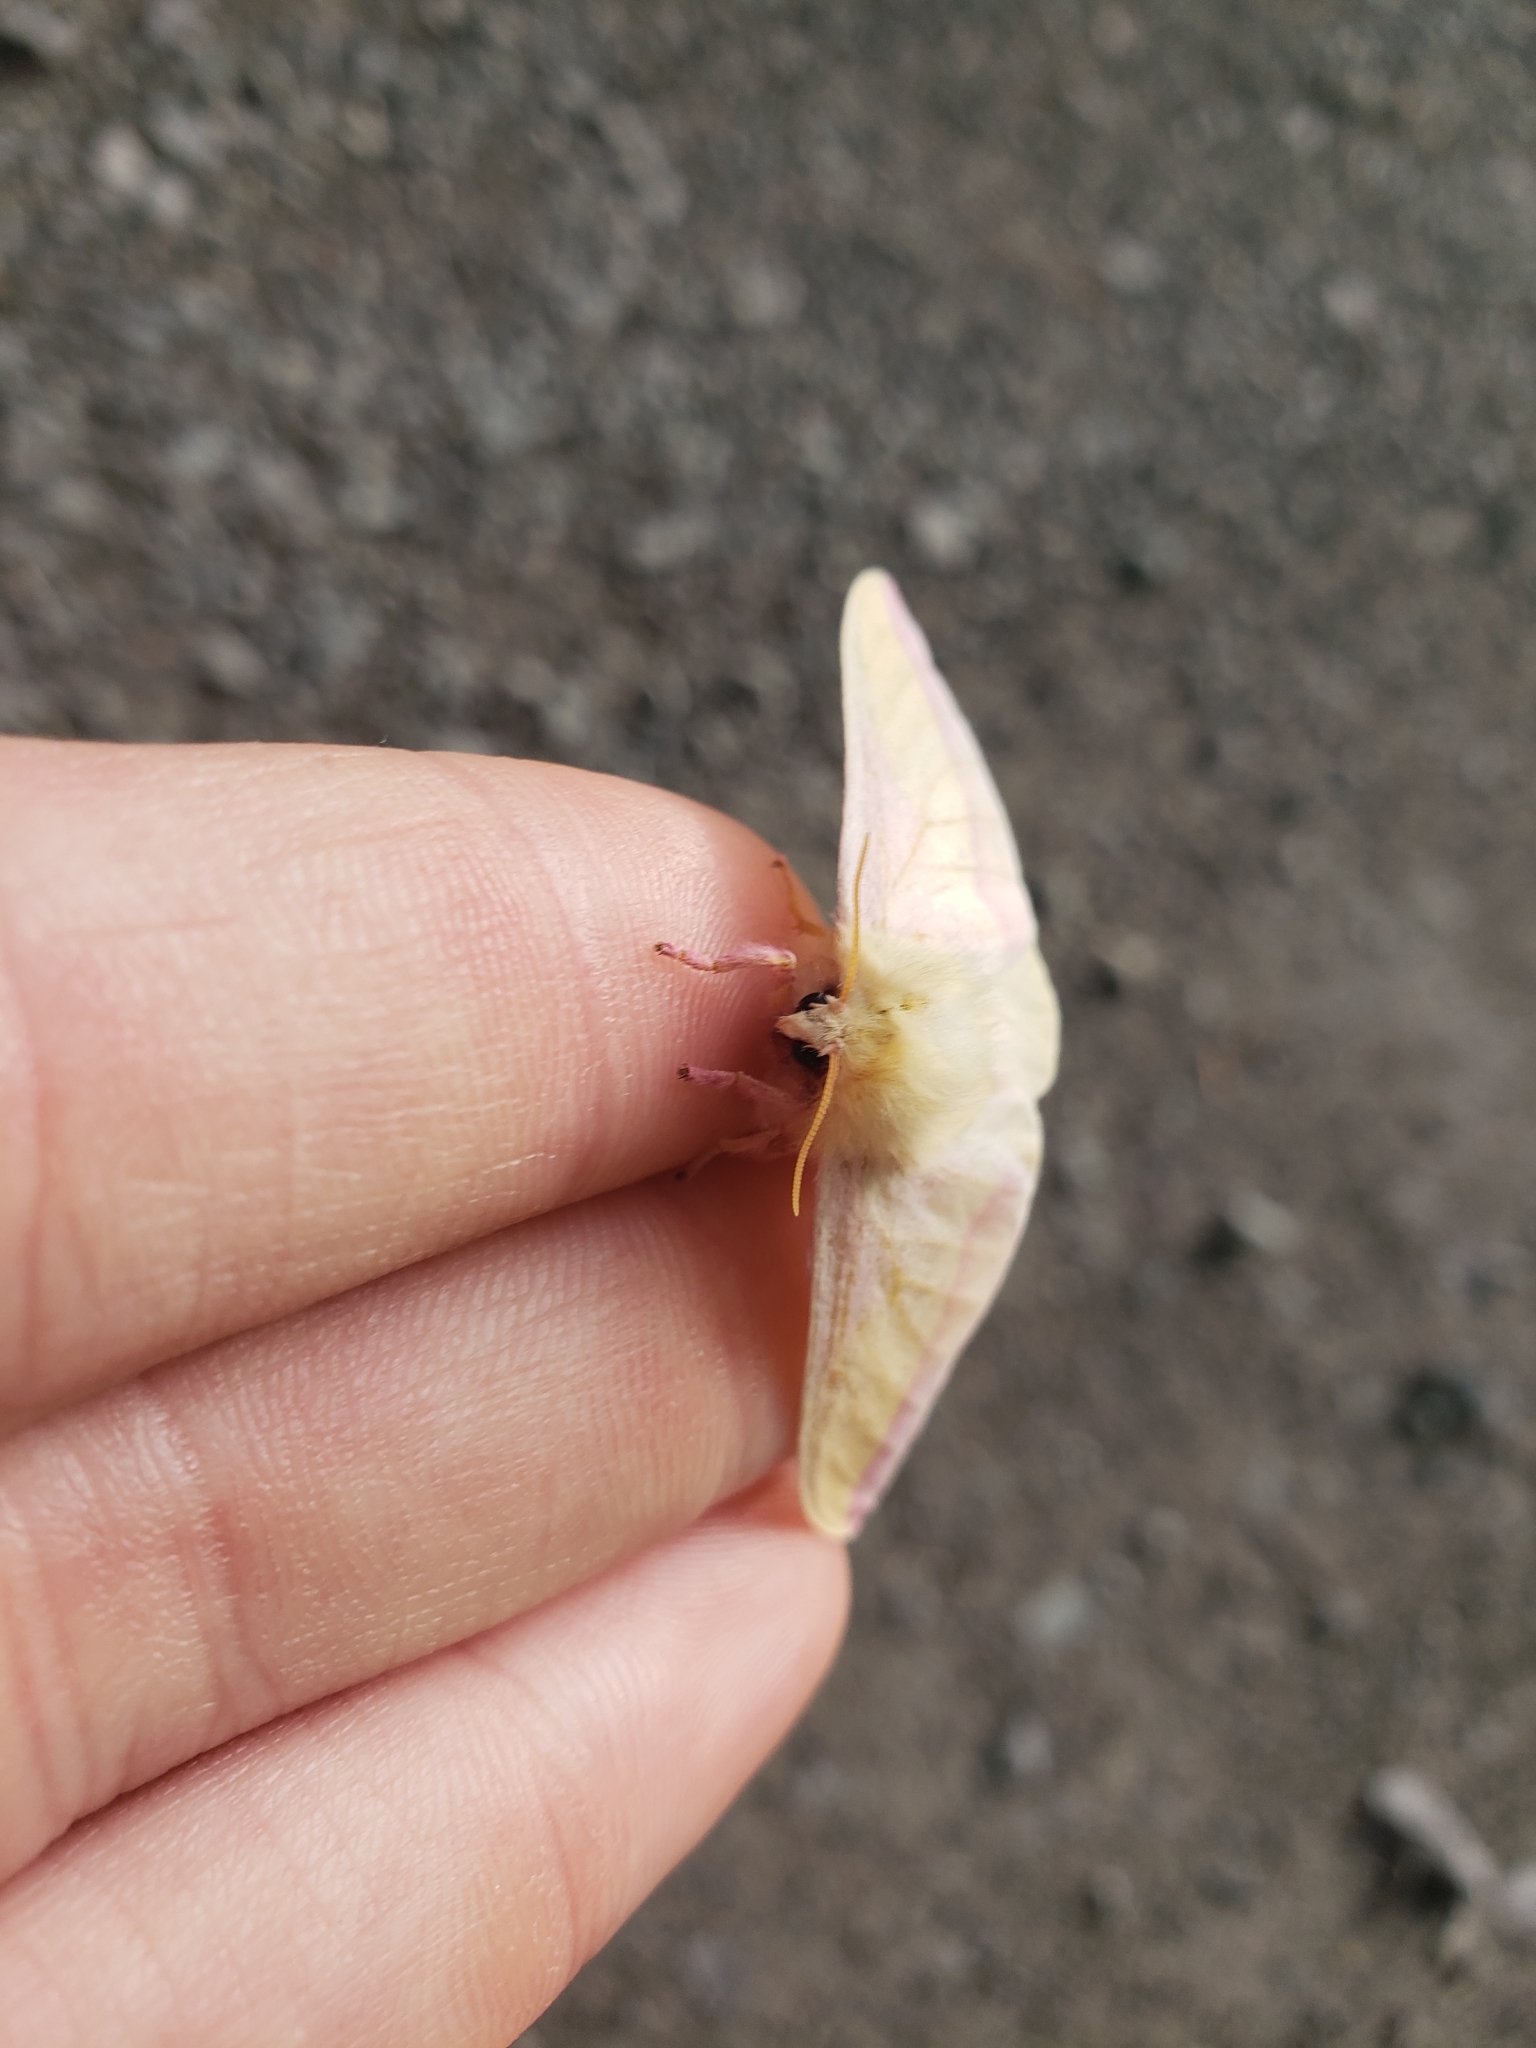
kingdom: Animalia
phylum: Arthropoda
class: Insecta
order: Lepidoptera
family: Saturniidae
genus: Dryocampa
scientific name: Dryocampa rubicunda
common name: Rosy maple moth
